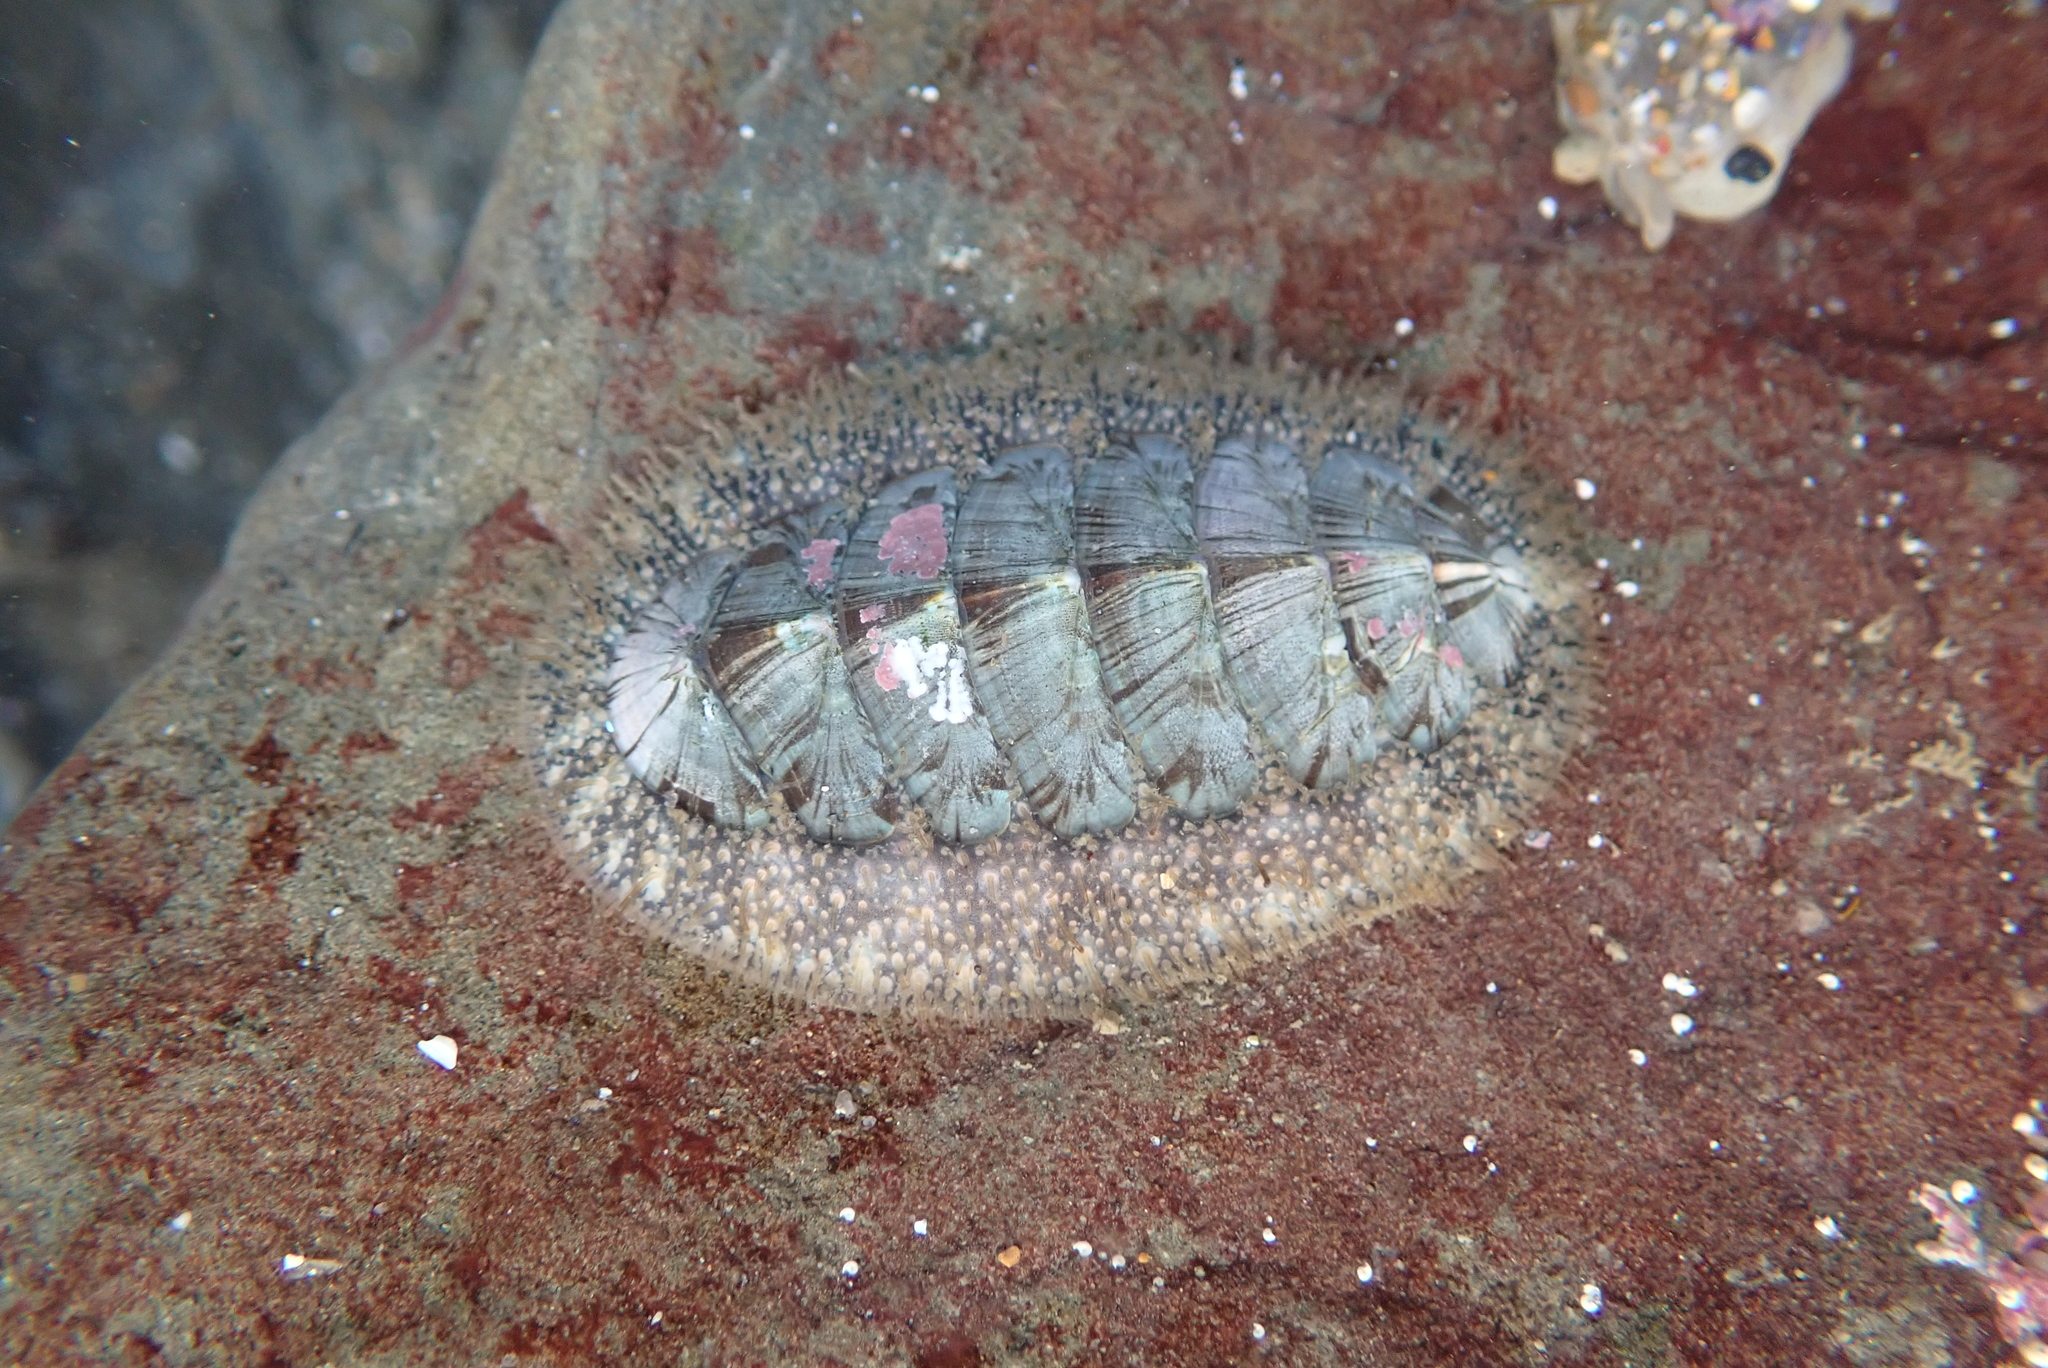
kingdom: Animalia
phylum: Mollusca
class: Polyplacophora
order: Chitonida
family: Mopaliidae
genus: Mopalia
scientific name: Mopalia lignosa
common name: Woody chiton
